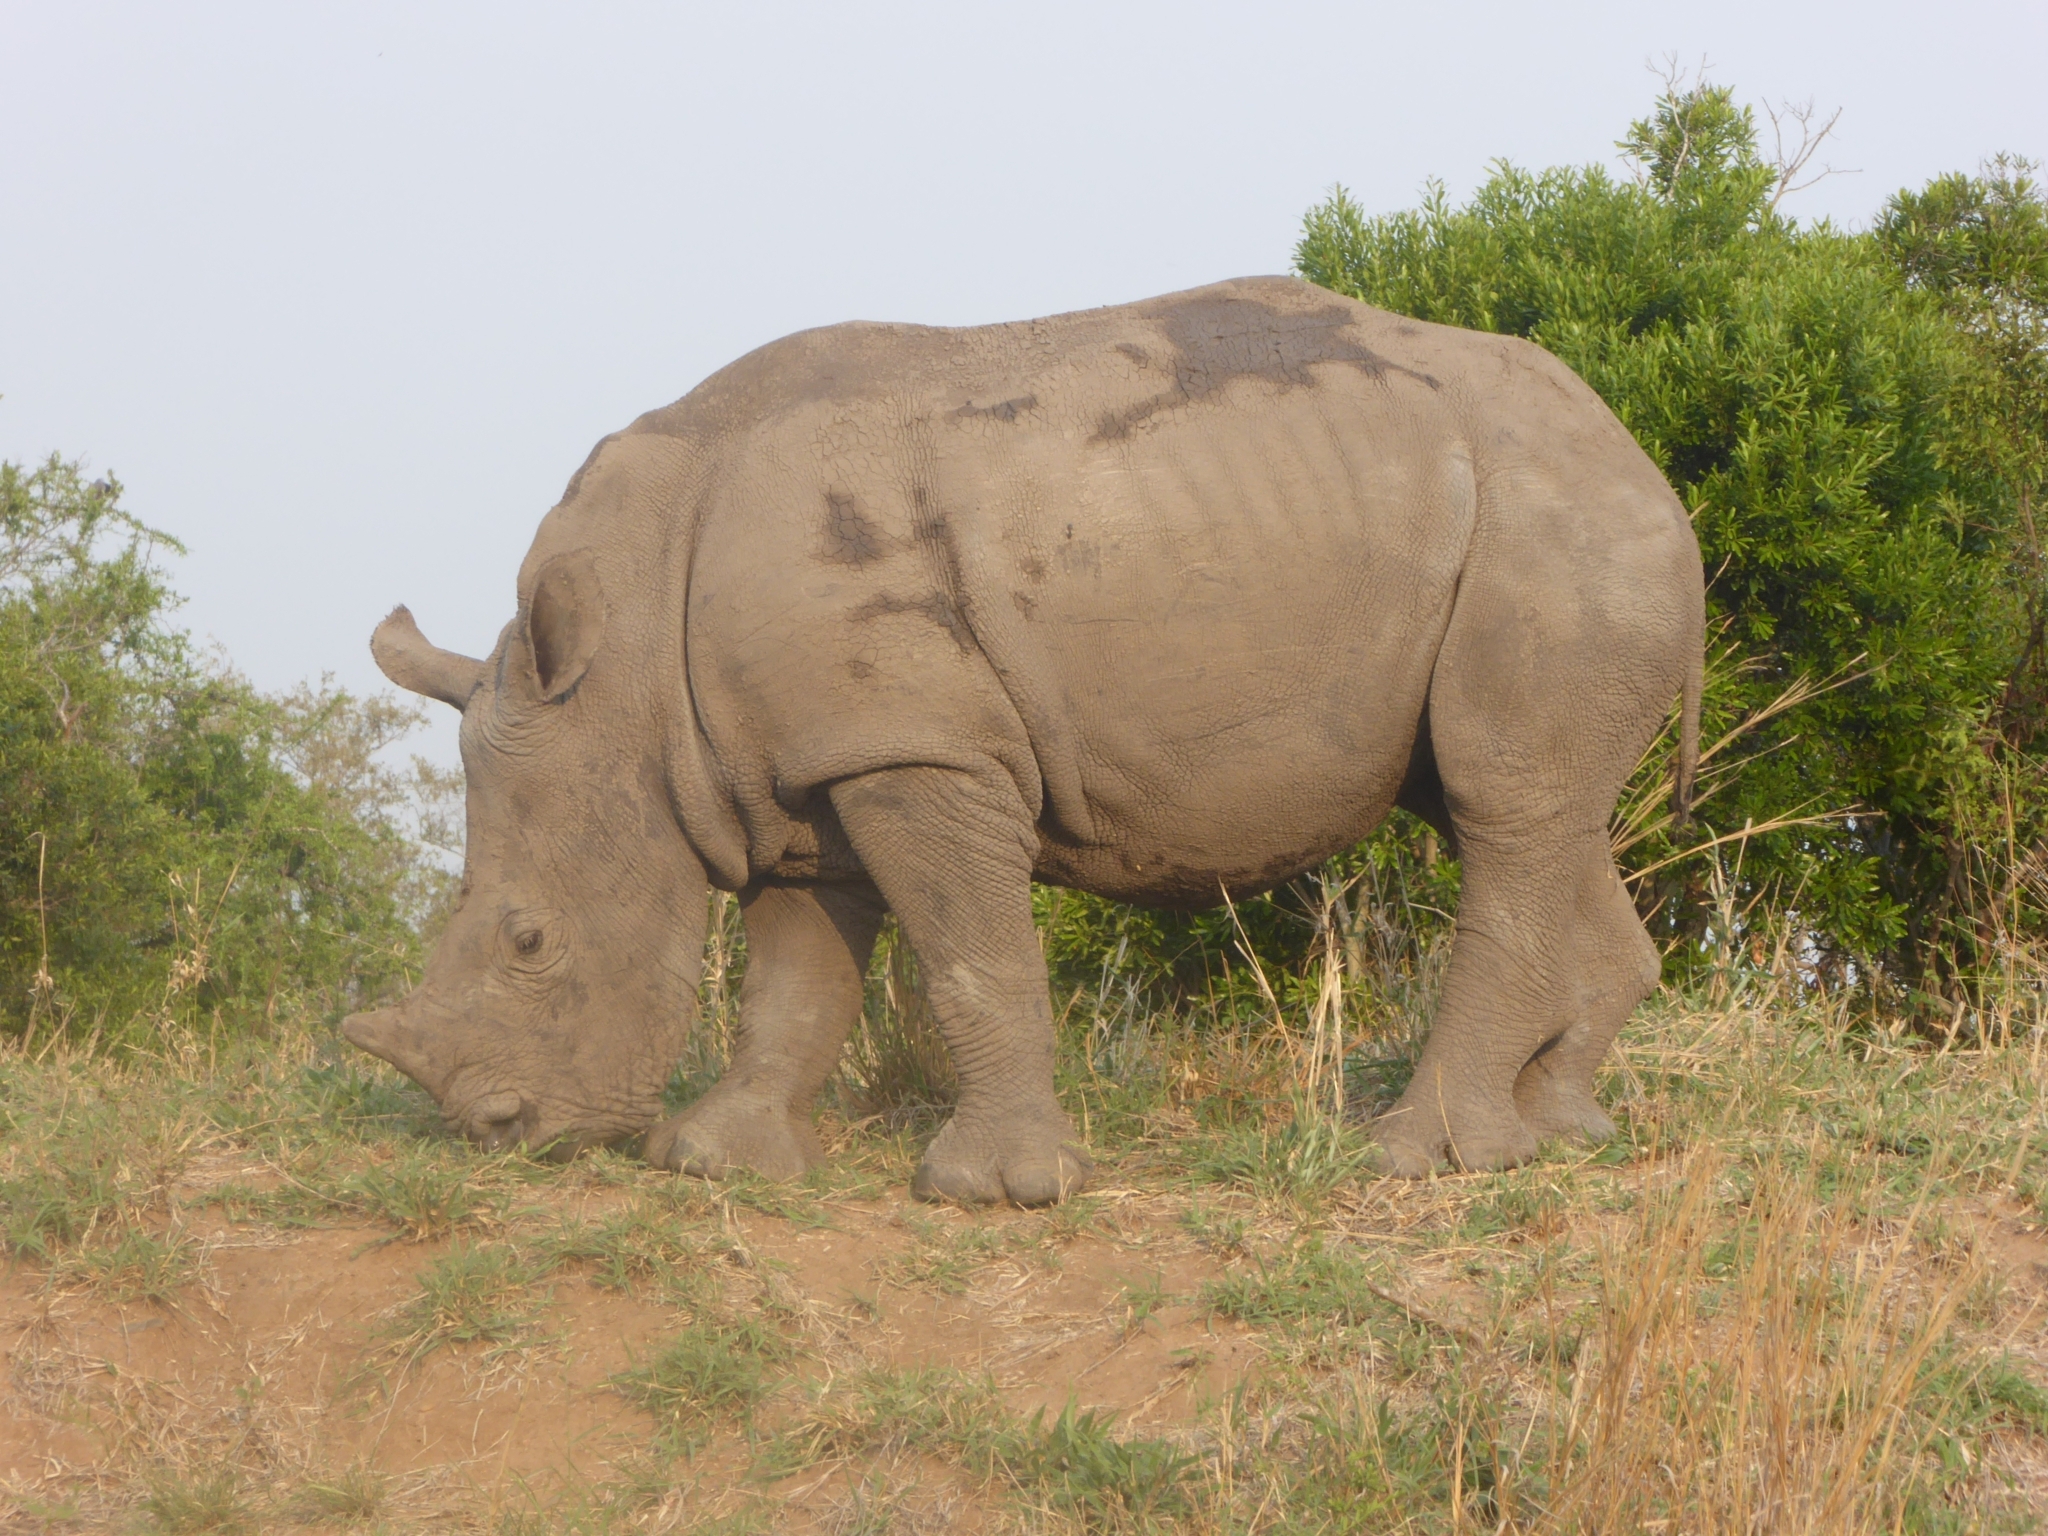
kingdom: Animalia
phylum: Chordata
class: Mammalia
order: Perissodactyla
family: Rhinocerotidae
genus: Ceratotherium
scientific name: Ceratotherium simum
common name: White rhinoceros
